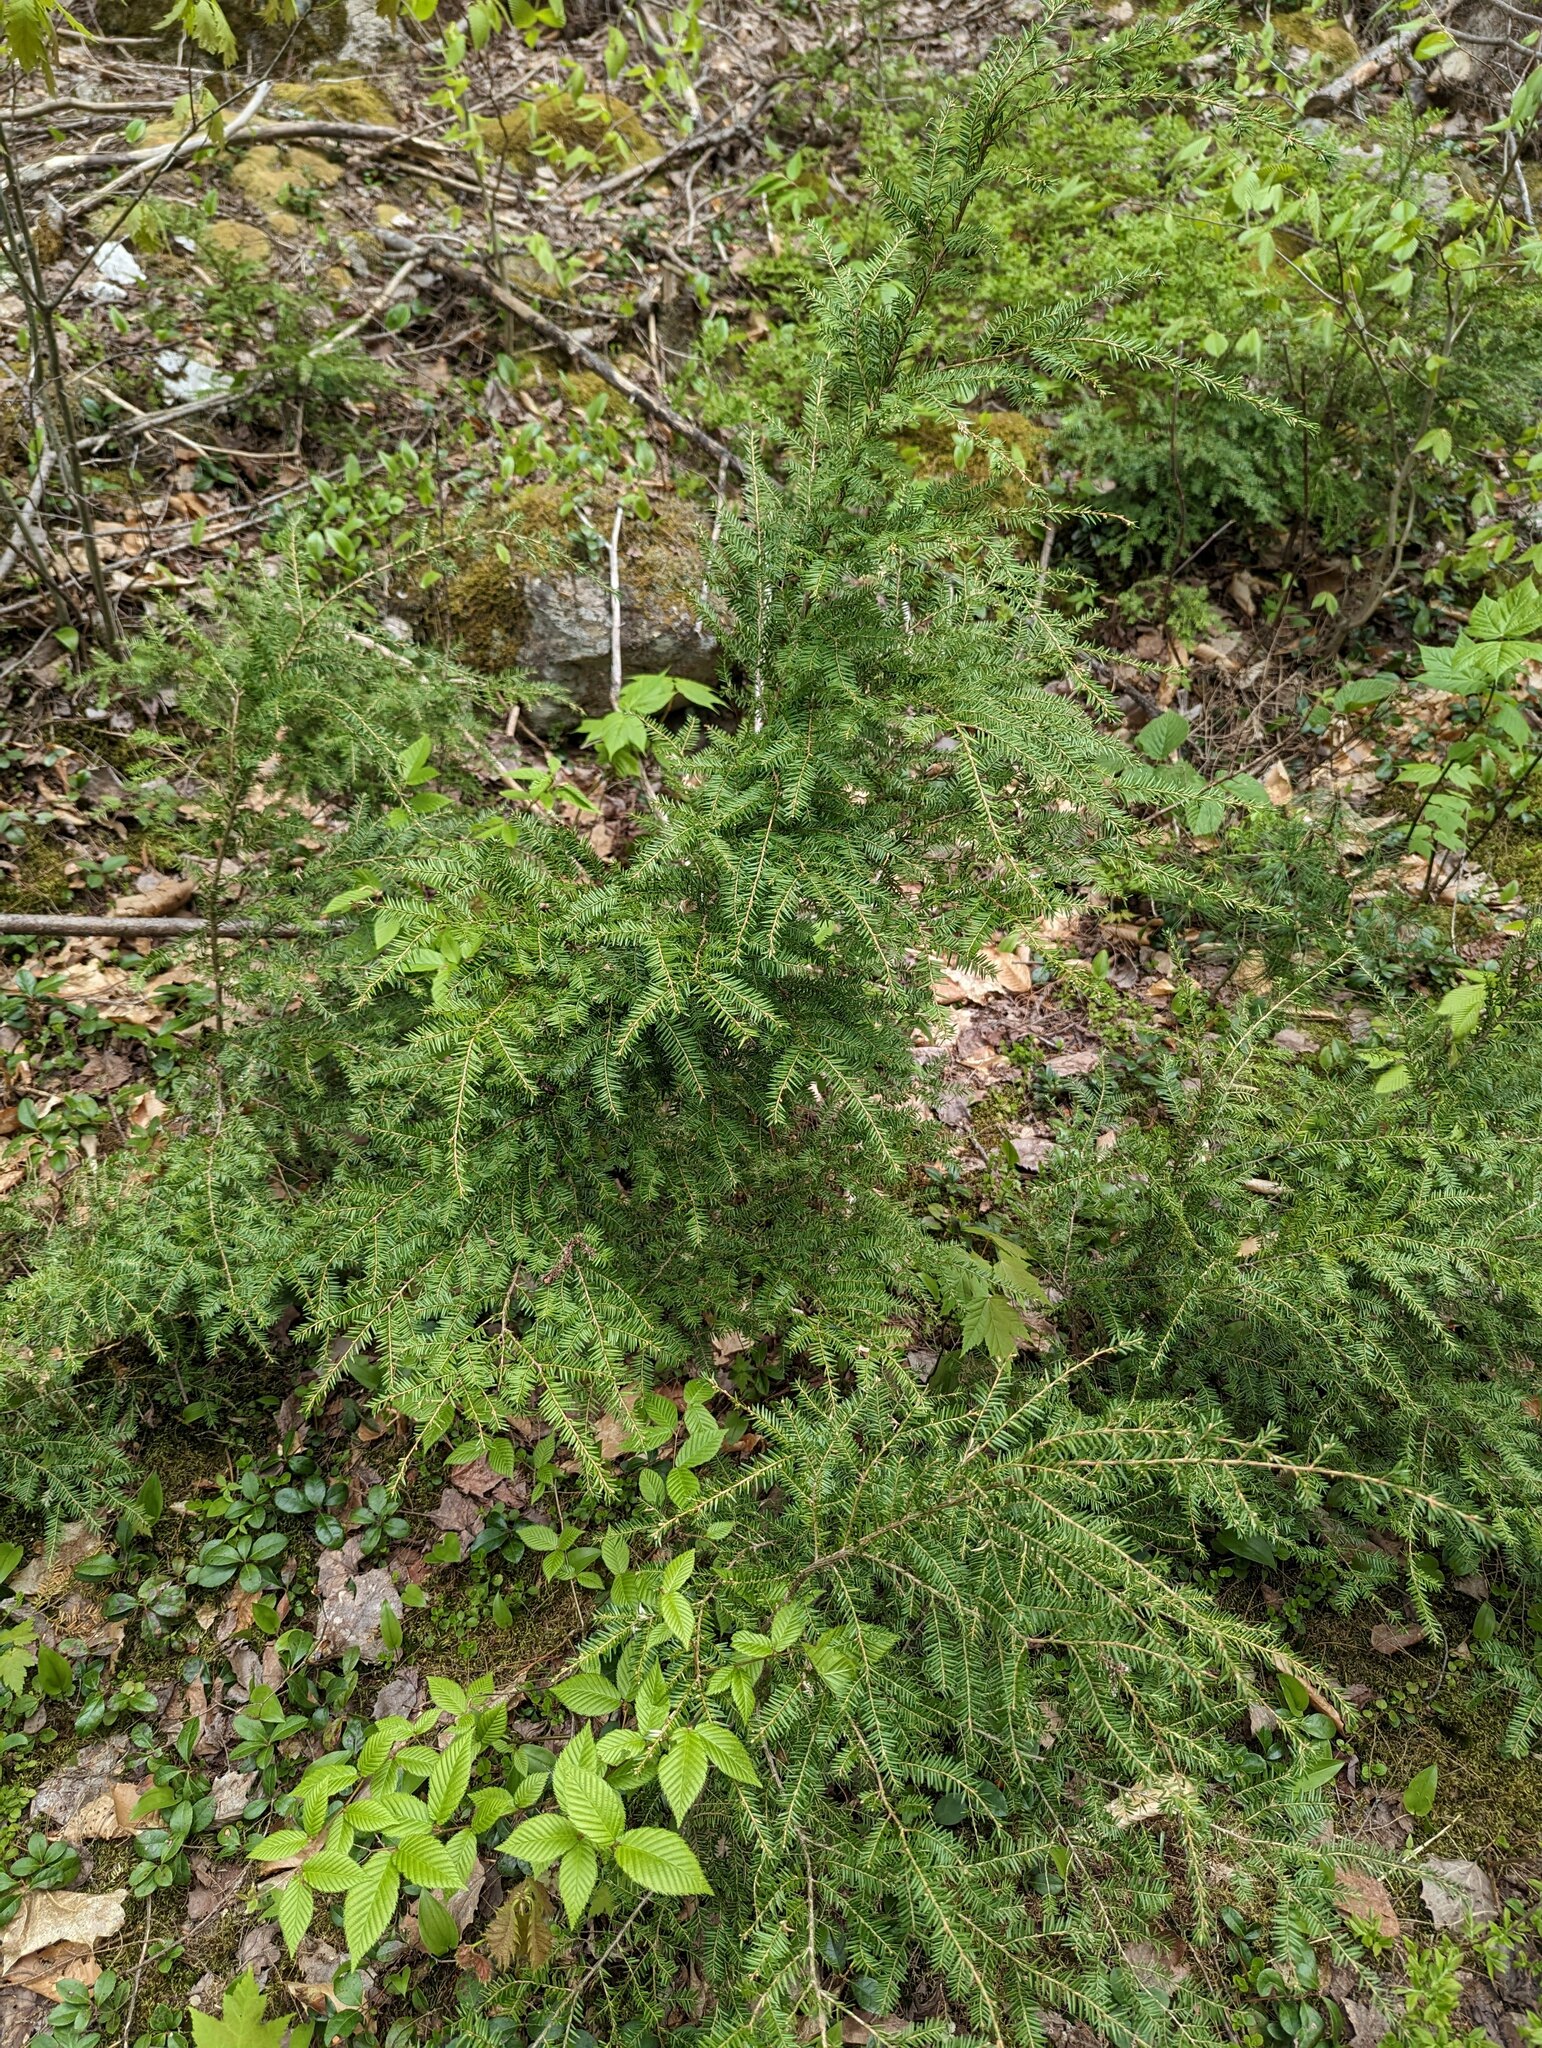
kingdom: Plantae
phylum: Tracheophyta
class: Pinopsida
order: Pinales
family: Pinaceae
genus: Tsuga
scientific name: Tsuga canadensis
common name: Eastern hemlock
